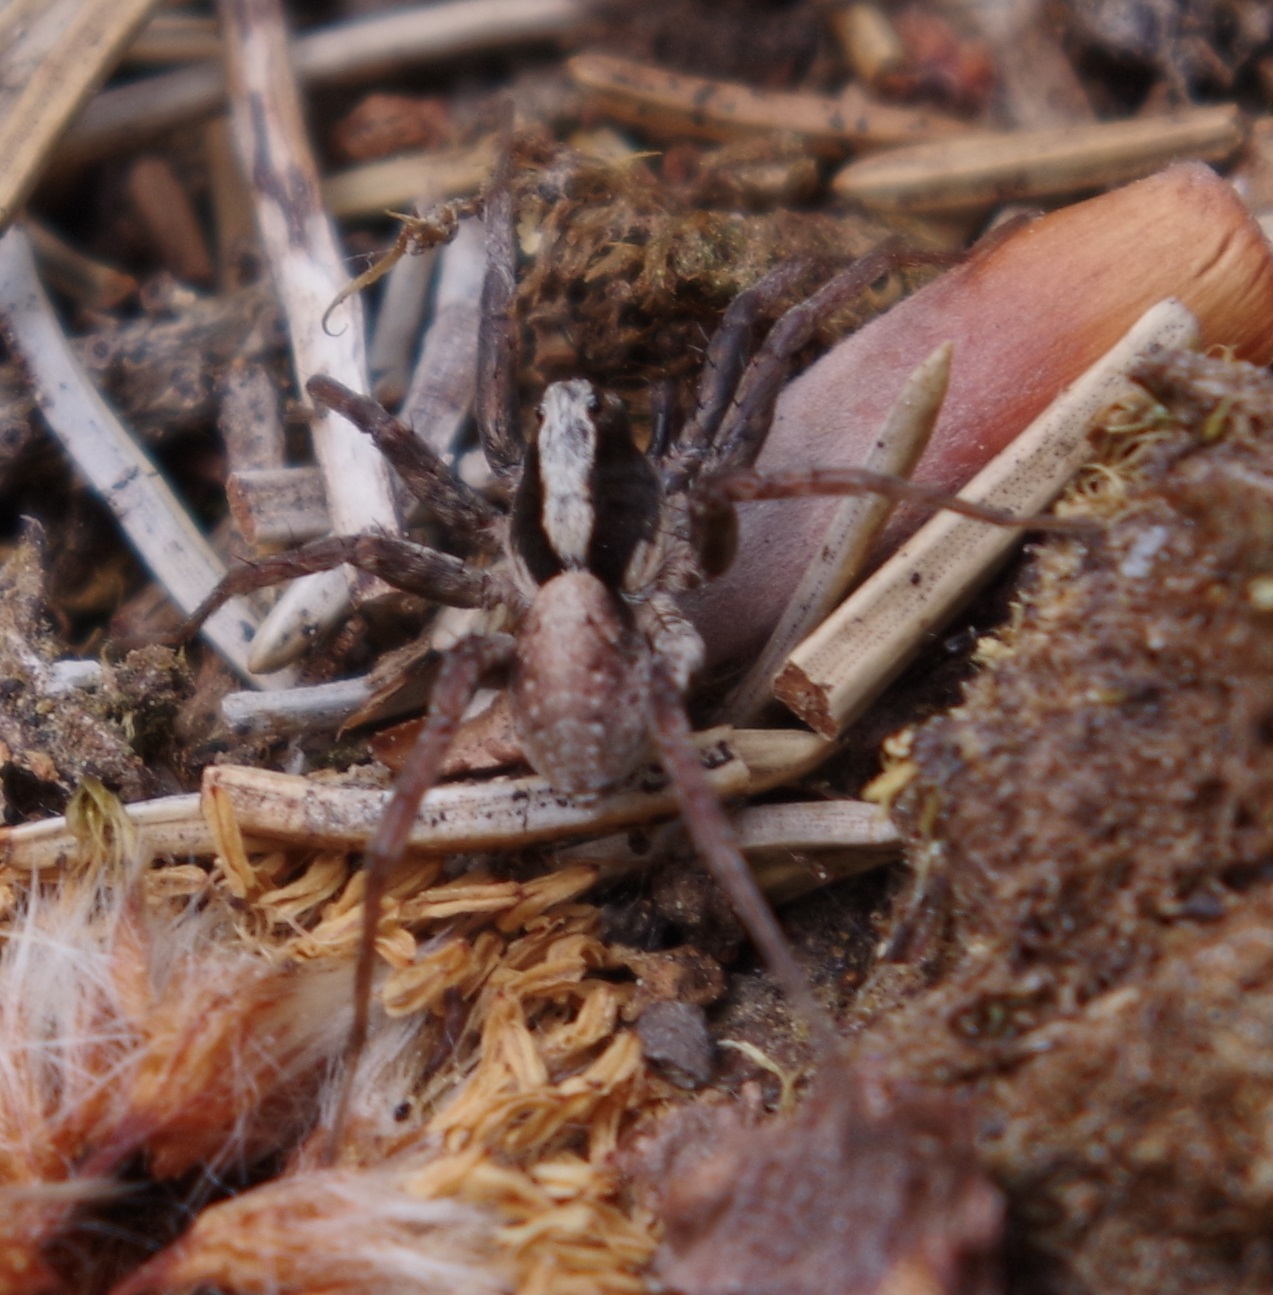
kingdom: Animalia
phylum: Arthropoda
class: Arachnida
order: Araneae
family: Lycosidae
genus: Xerolycosa
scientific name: Xerolycosa nemoralis
